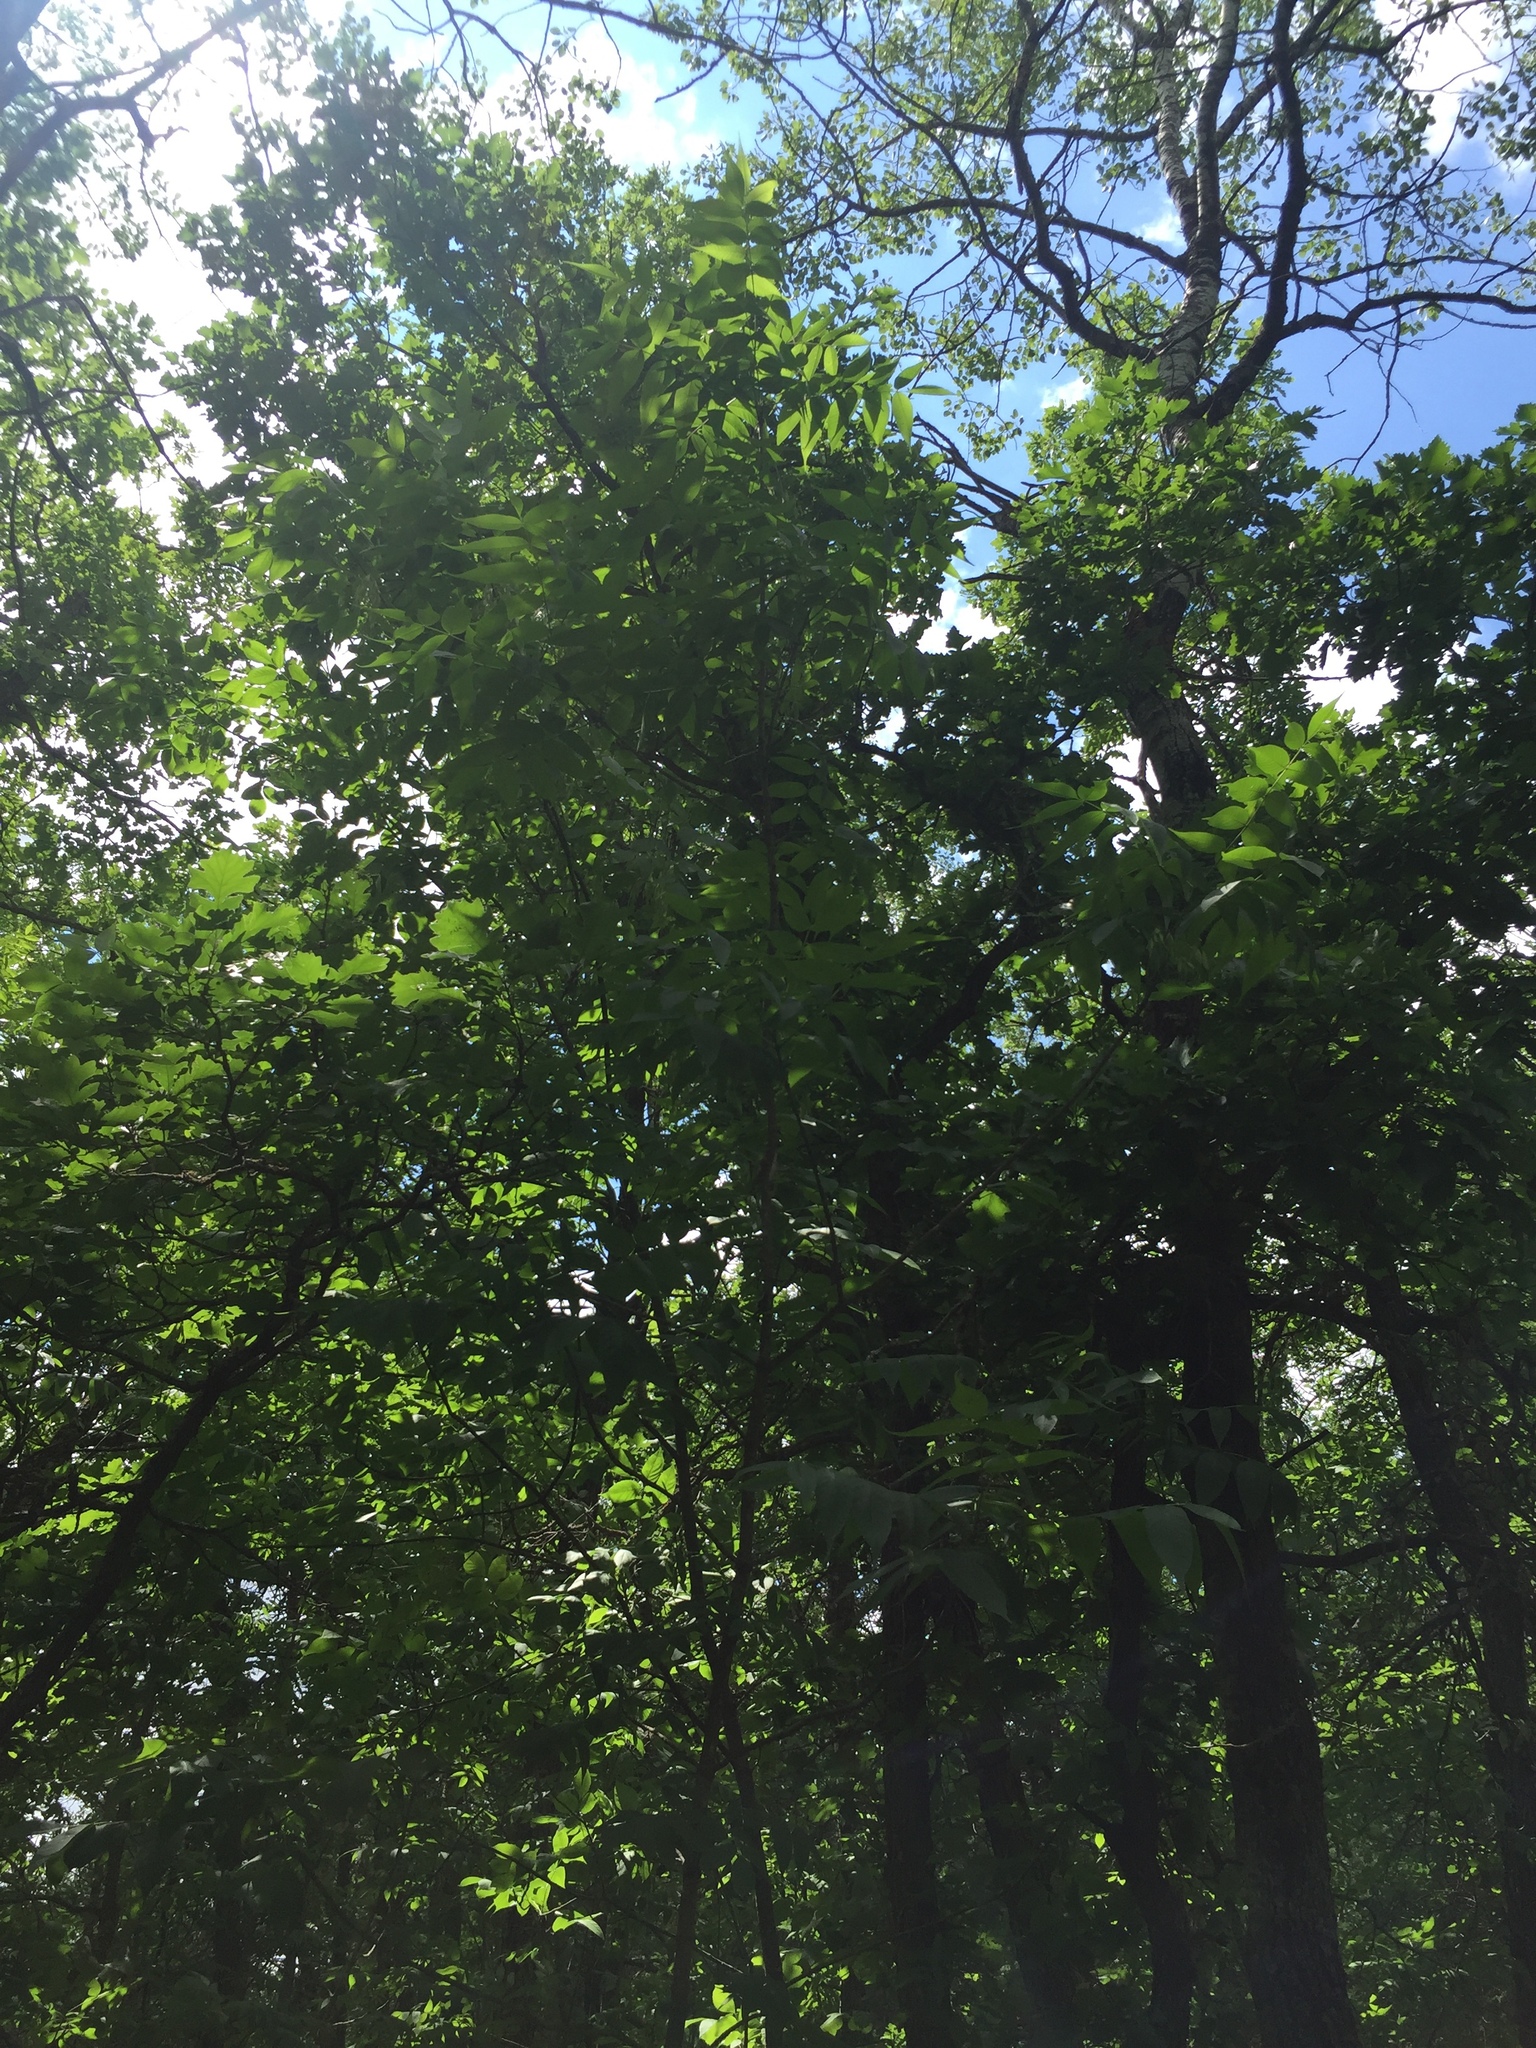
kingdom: Plantae
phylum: Tracheophyta
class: Magnoliopsida
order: Lamiales
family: Oleaceae
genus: Fraxinus
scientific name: Fraxinus nigra
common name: Black ash
